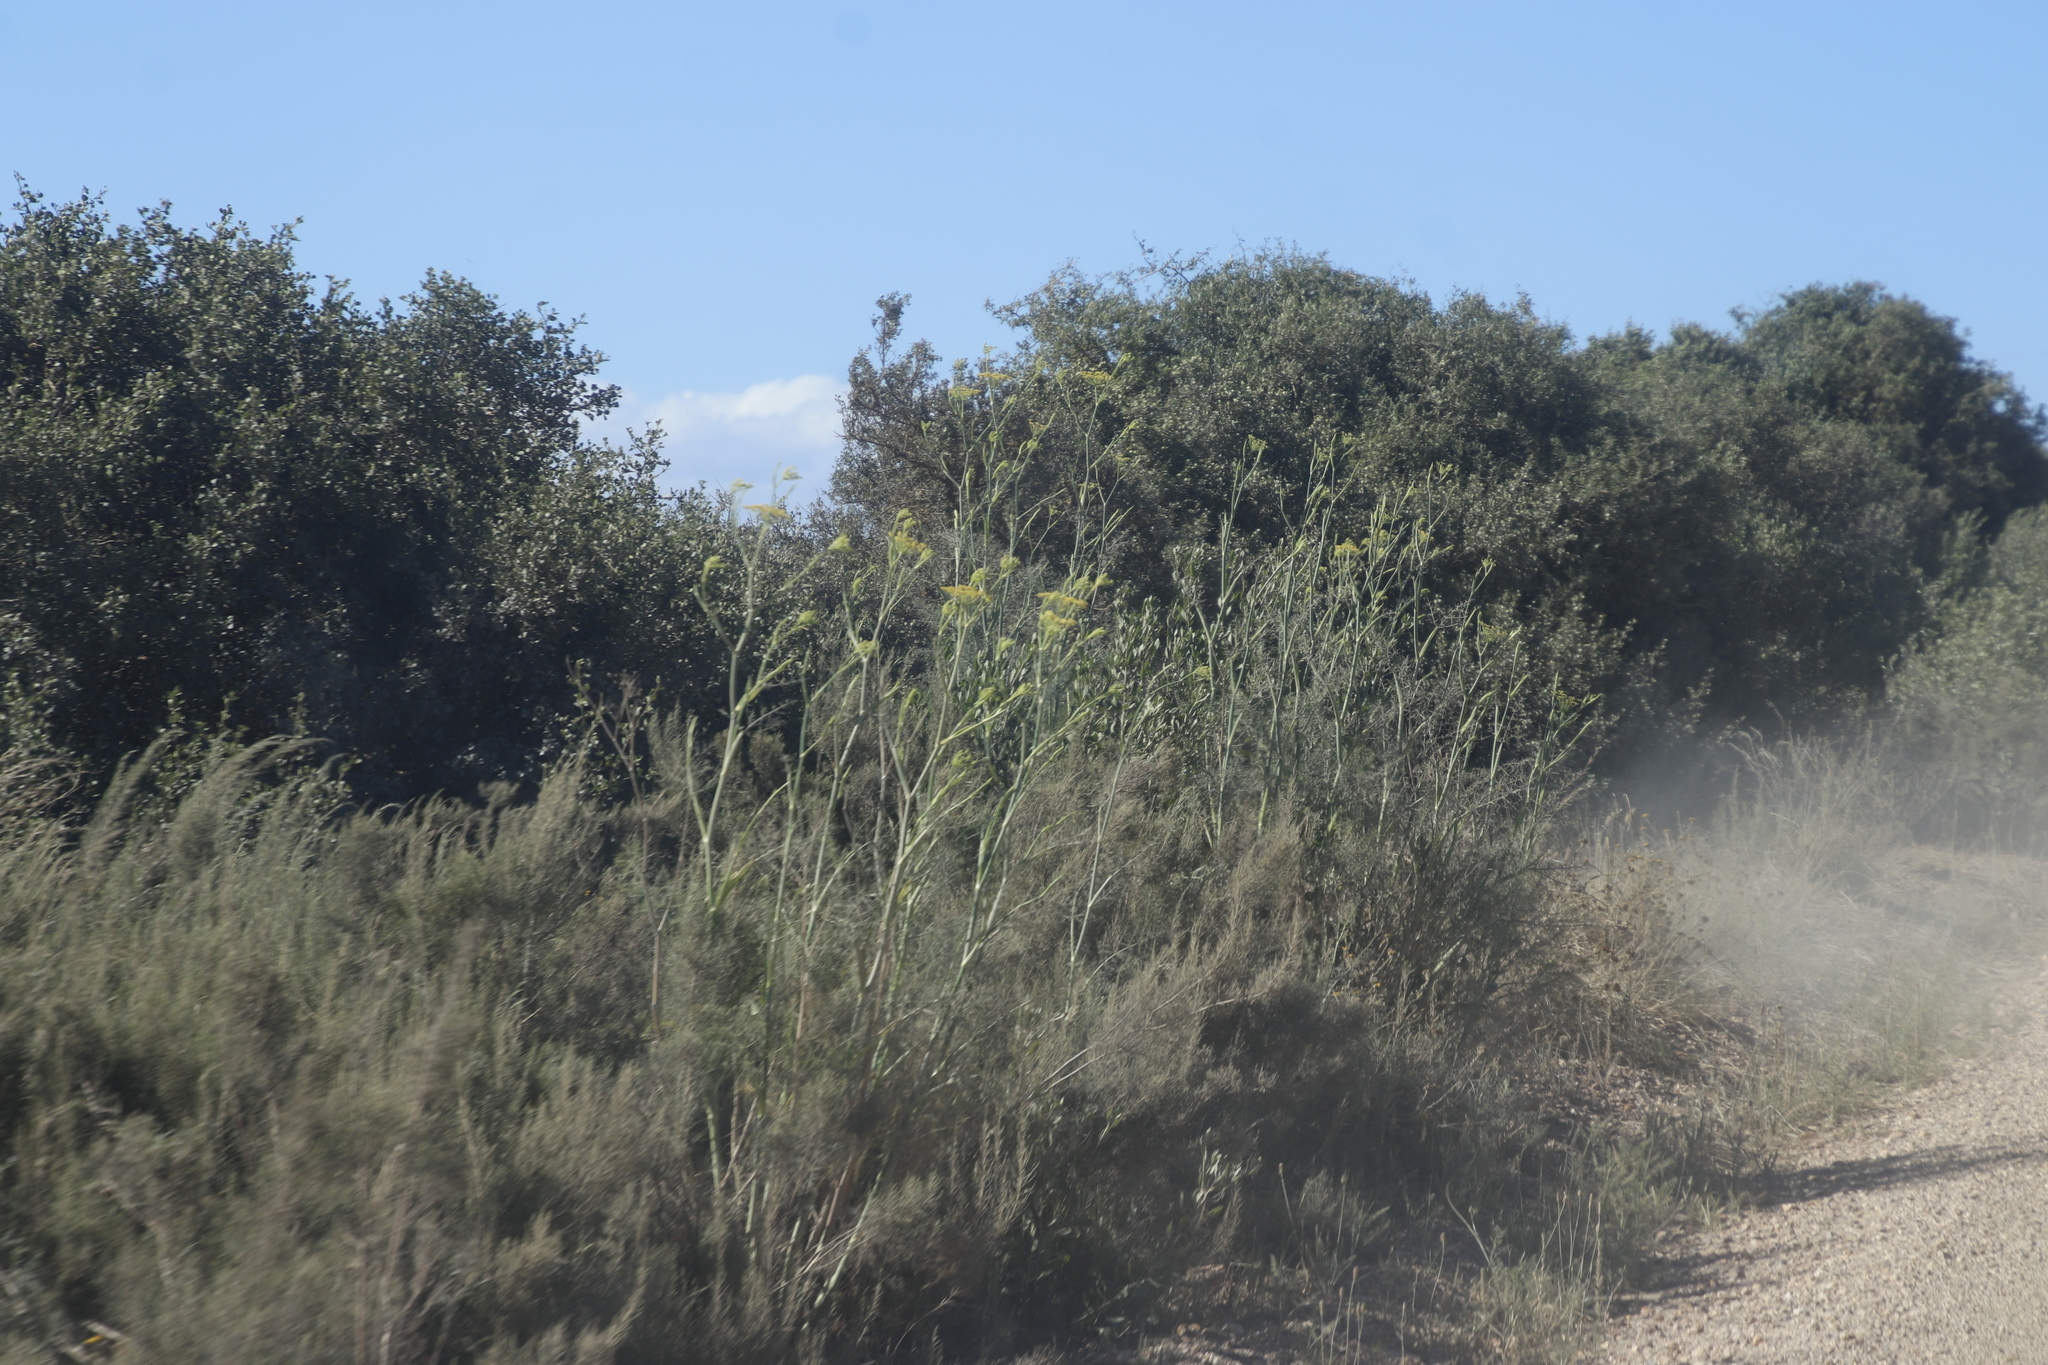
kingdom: Plantae
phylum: Tracheophyta
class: Magnoliopsida
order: Apiales
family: Apiaceae
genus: Foeniculum
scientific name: Foeniculum vulgare
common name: Fennel
